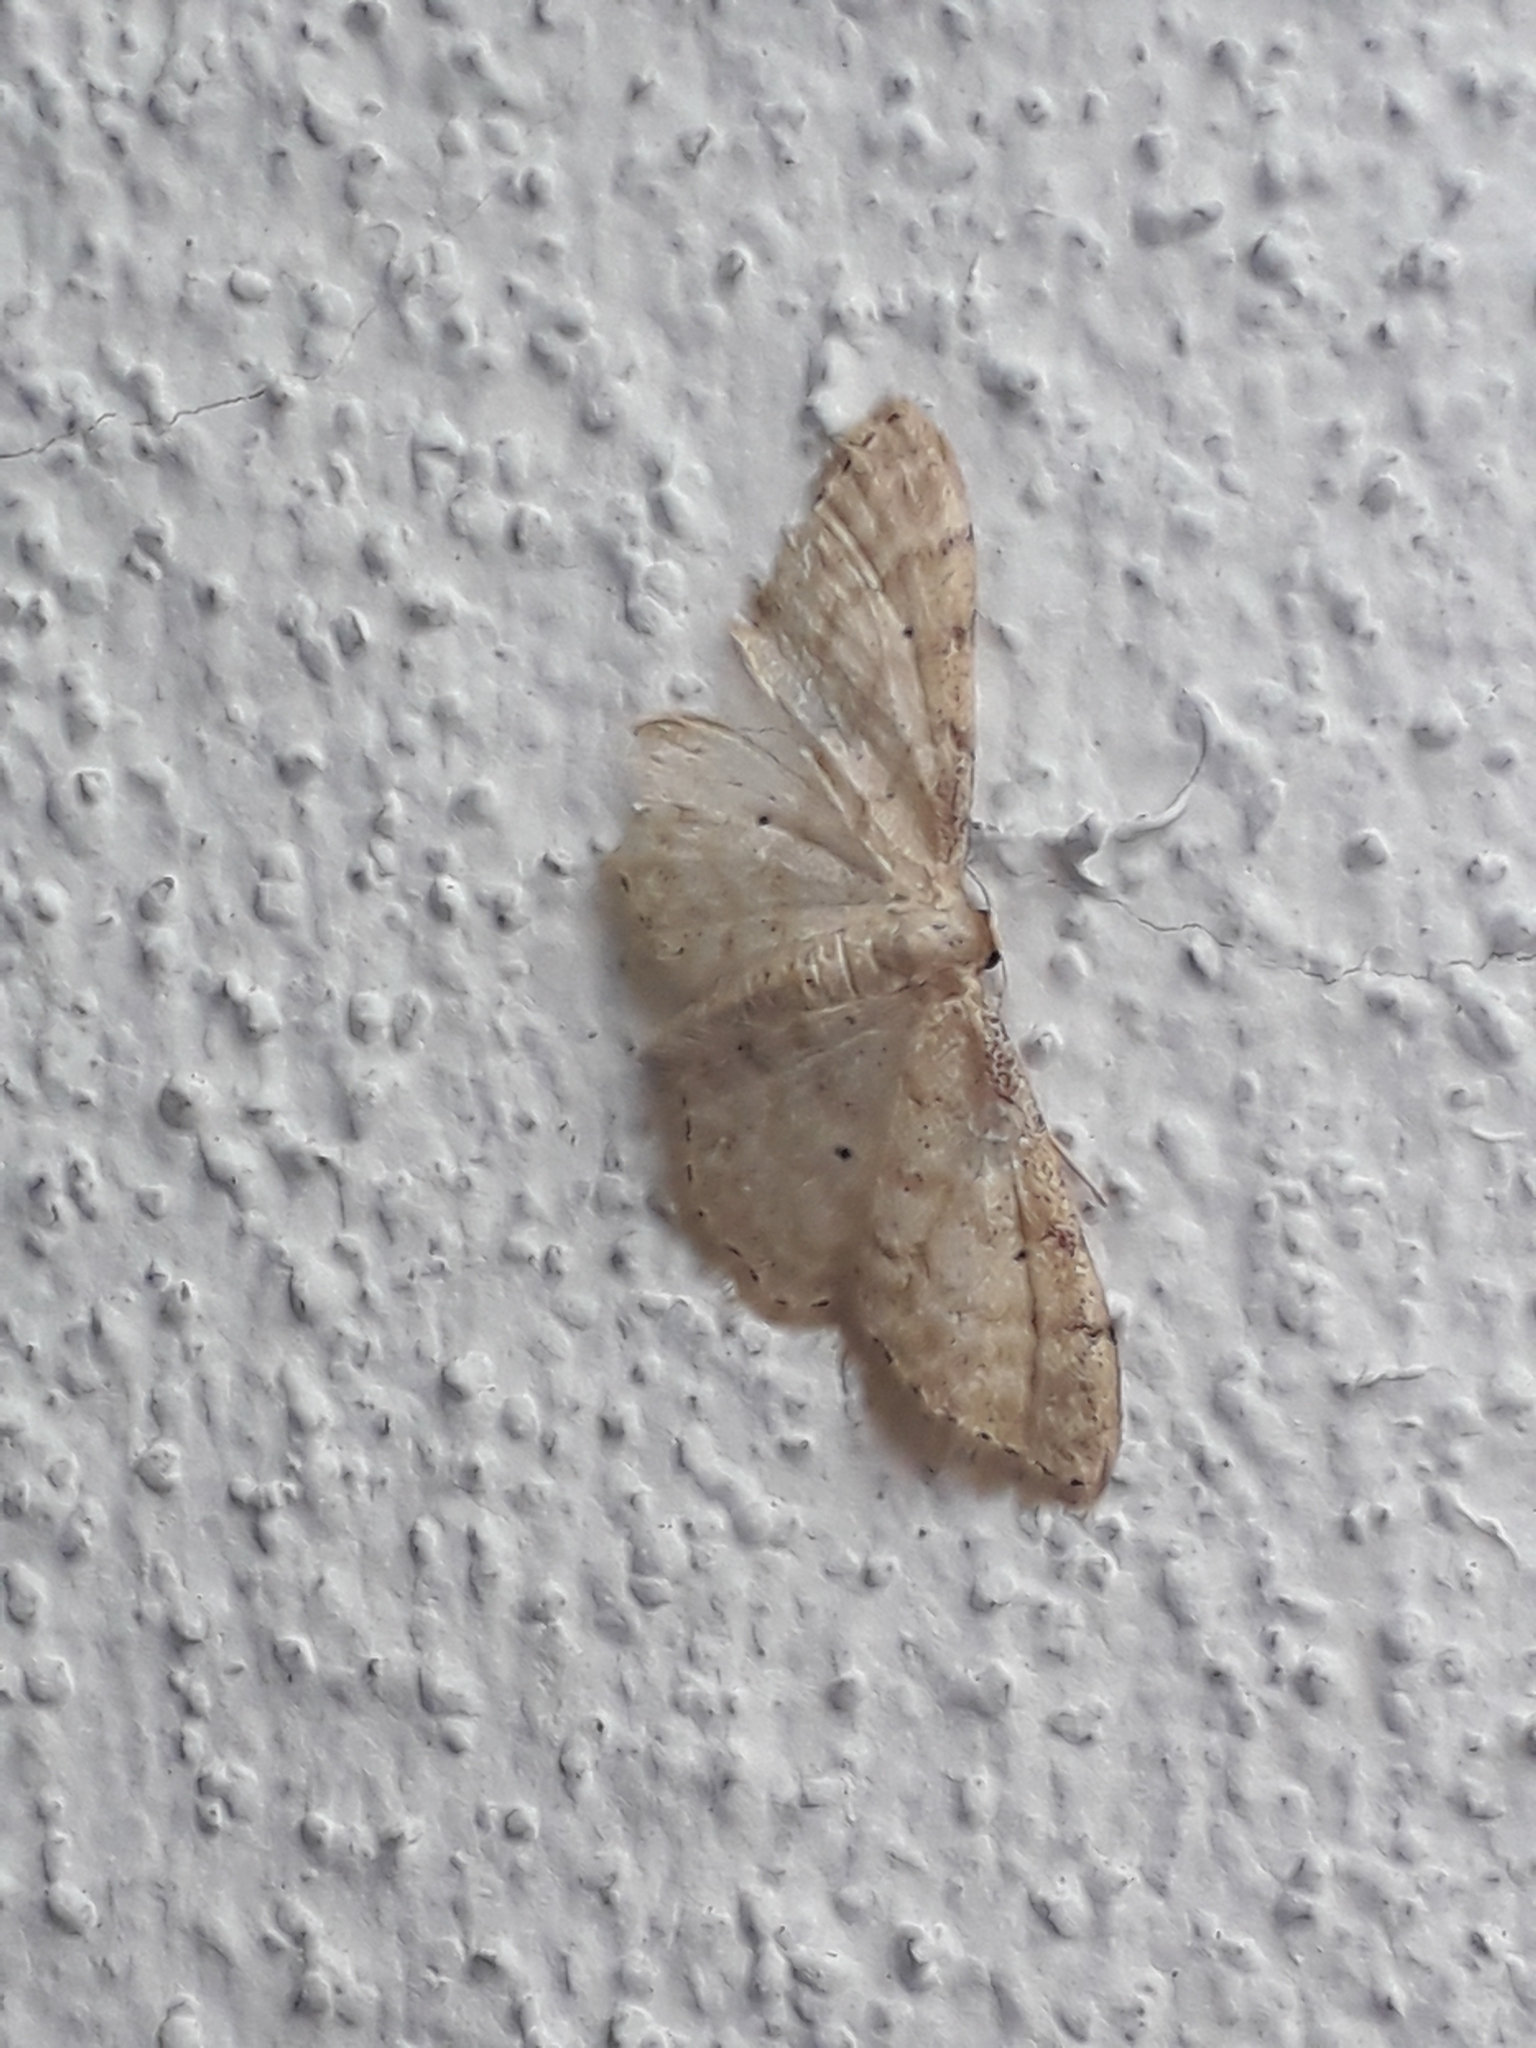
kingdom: Animalia
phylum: Arthropoda
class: Insecta
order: Lepidoptera
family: Geometridae
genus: Idaea
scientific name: Idaea fuscovenosa
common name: Dwarf cream wave
